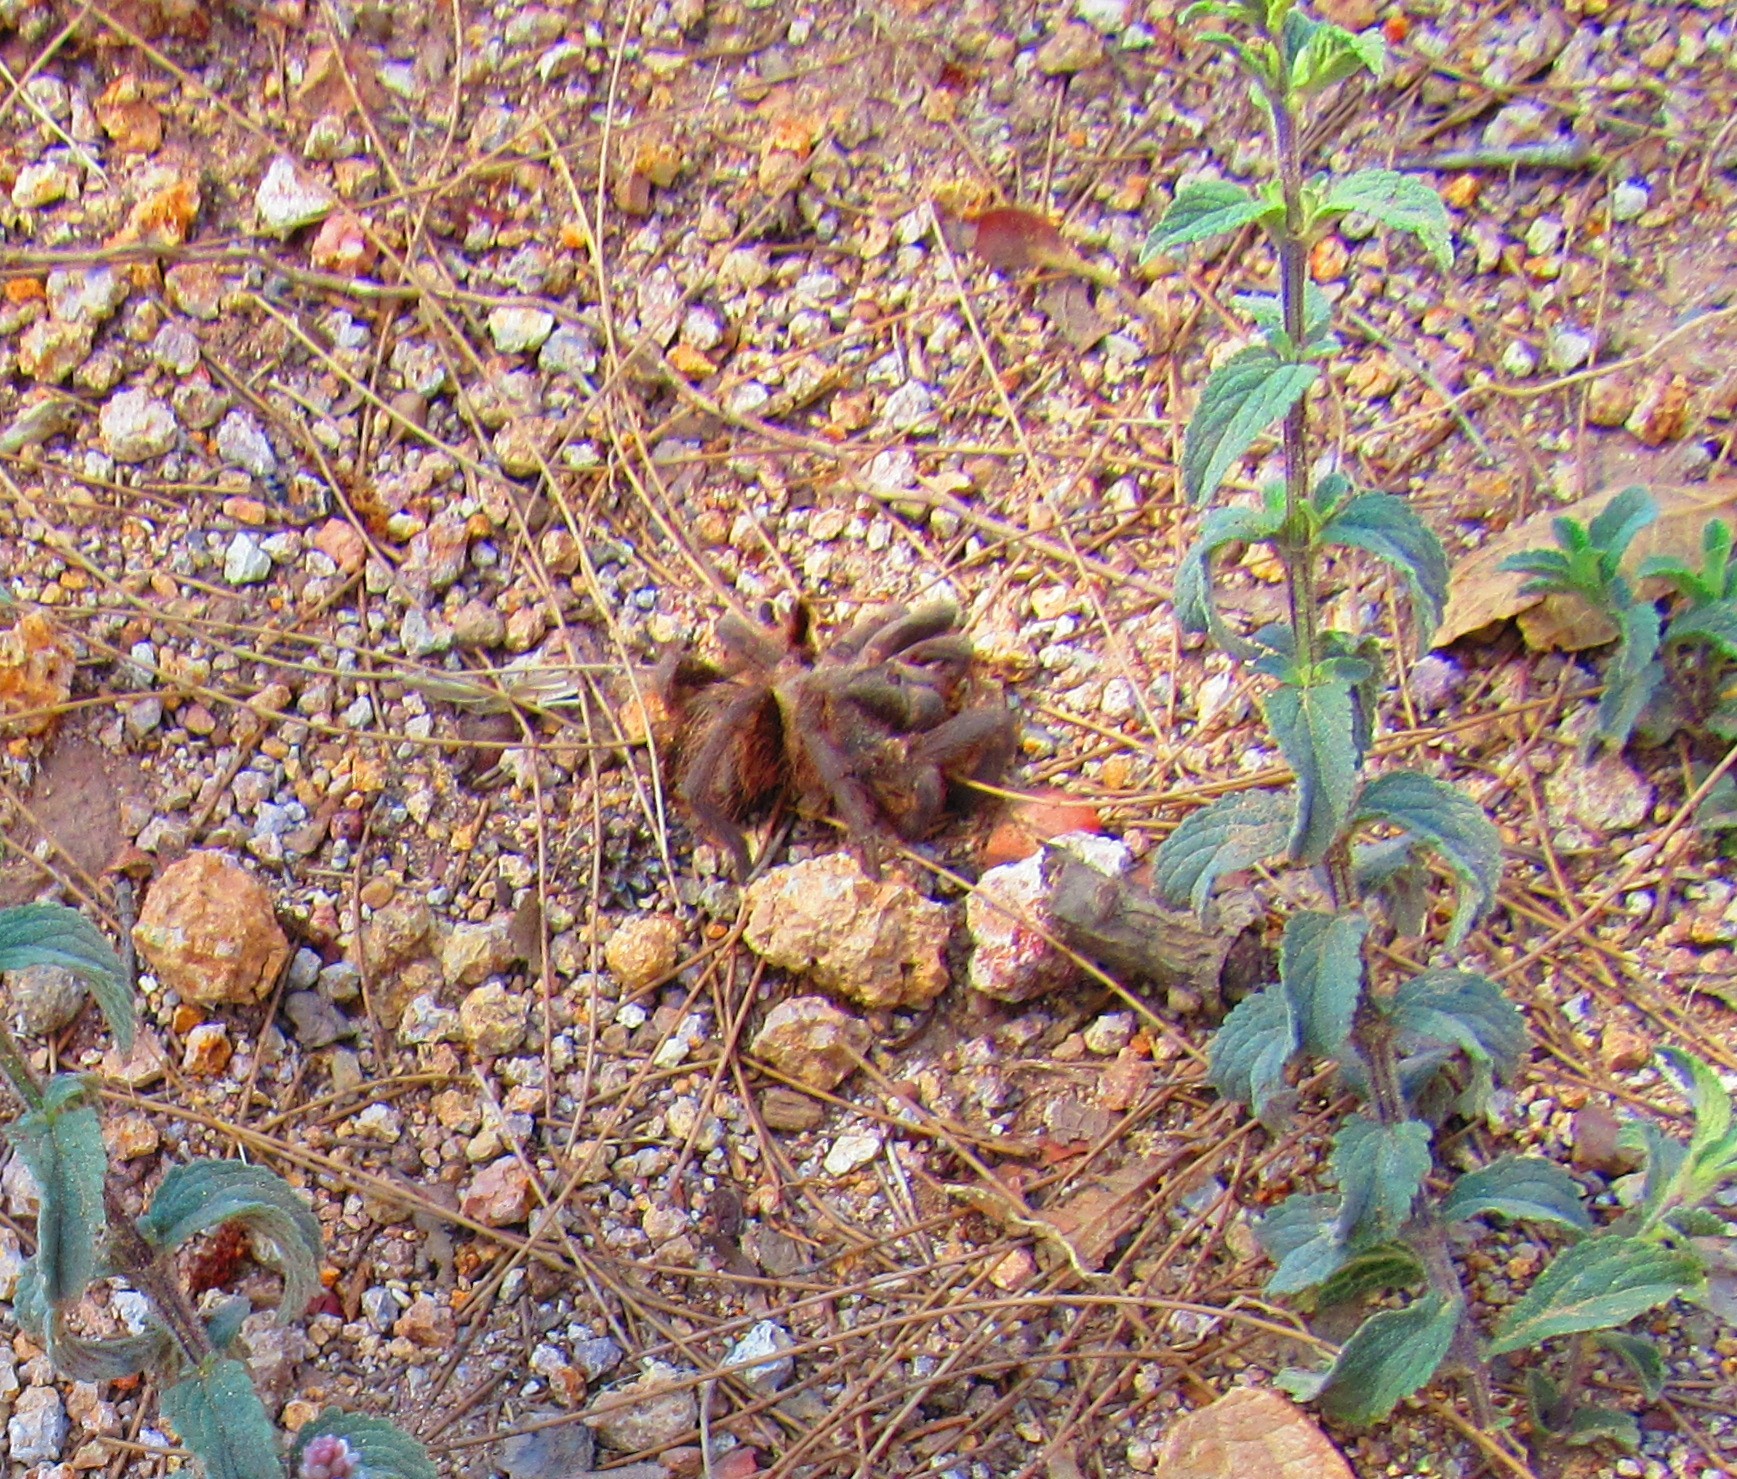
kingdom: Animalia
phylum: Arthropoda
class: Arachnida
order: Araneae
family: Theraphosidae
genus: Aphonopelma
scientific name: Aphonopelma caniceps
